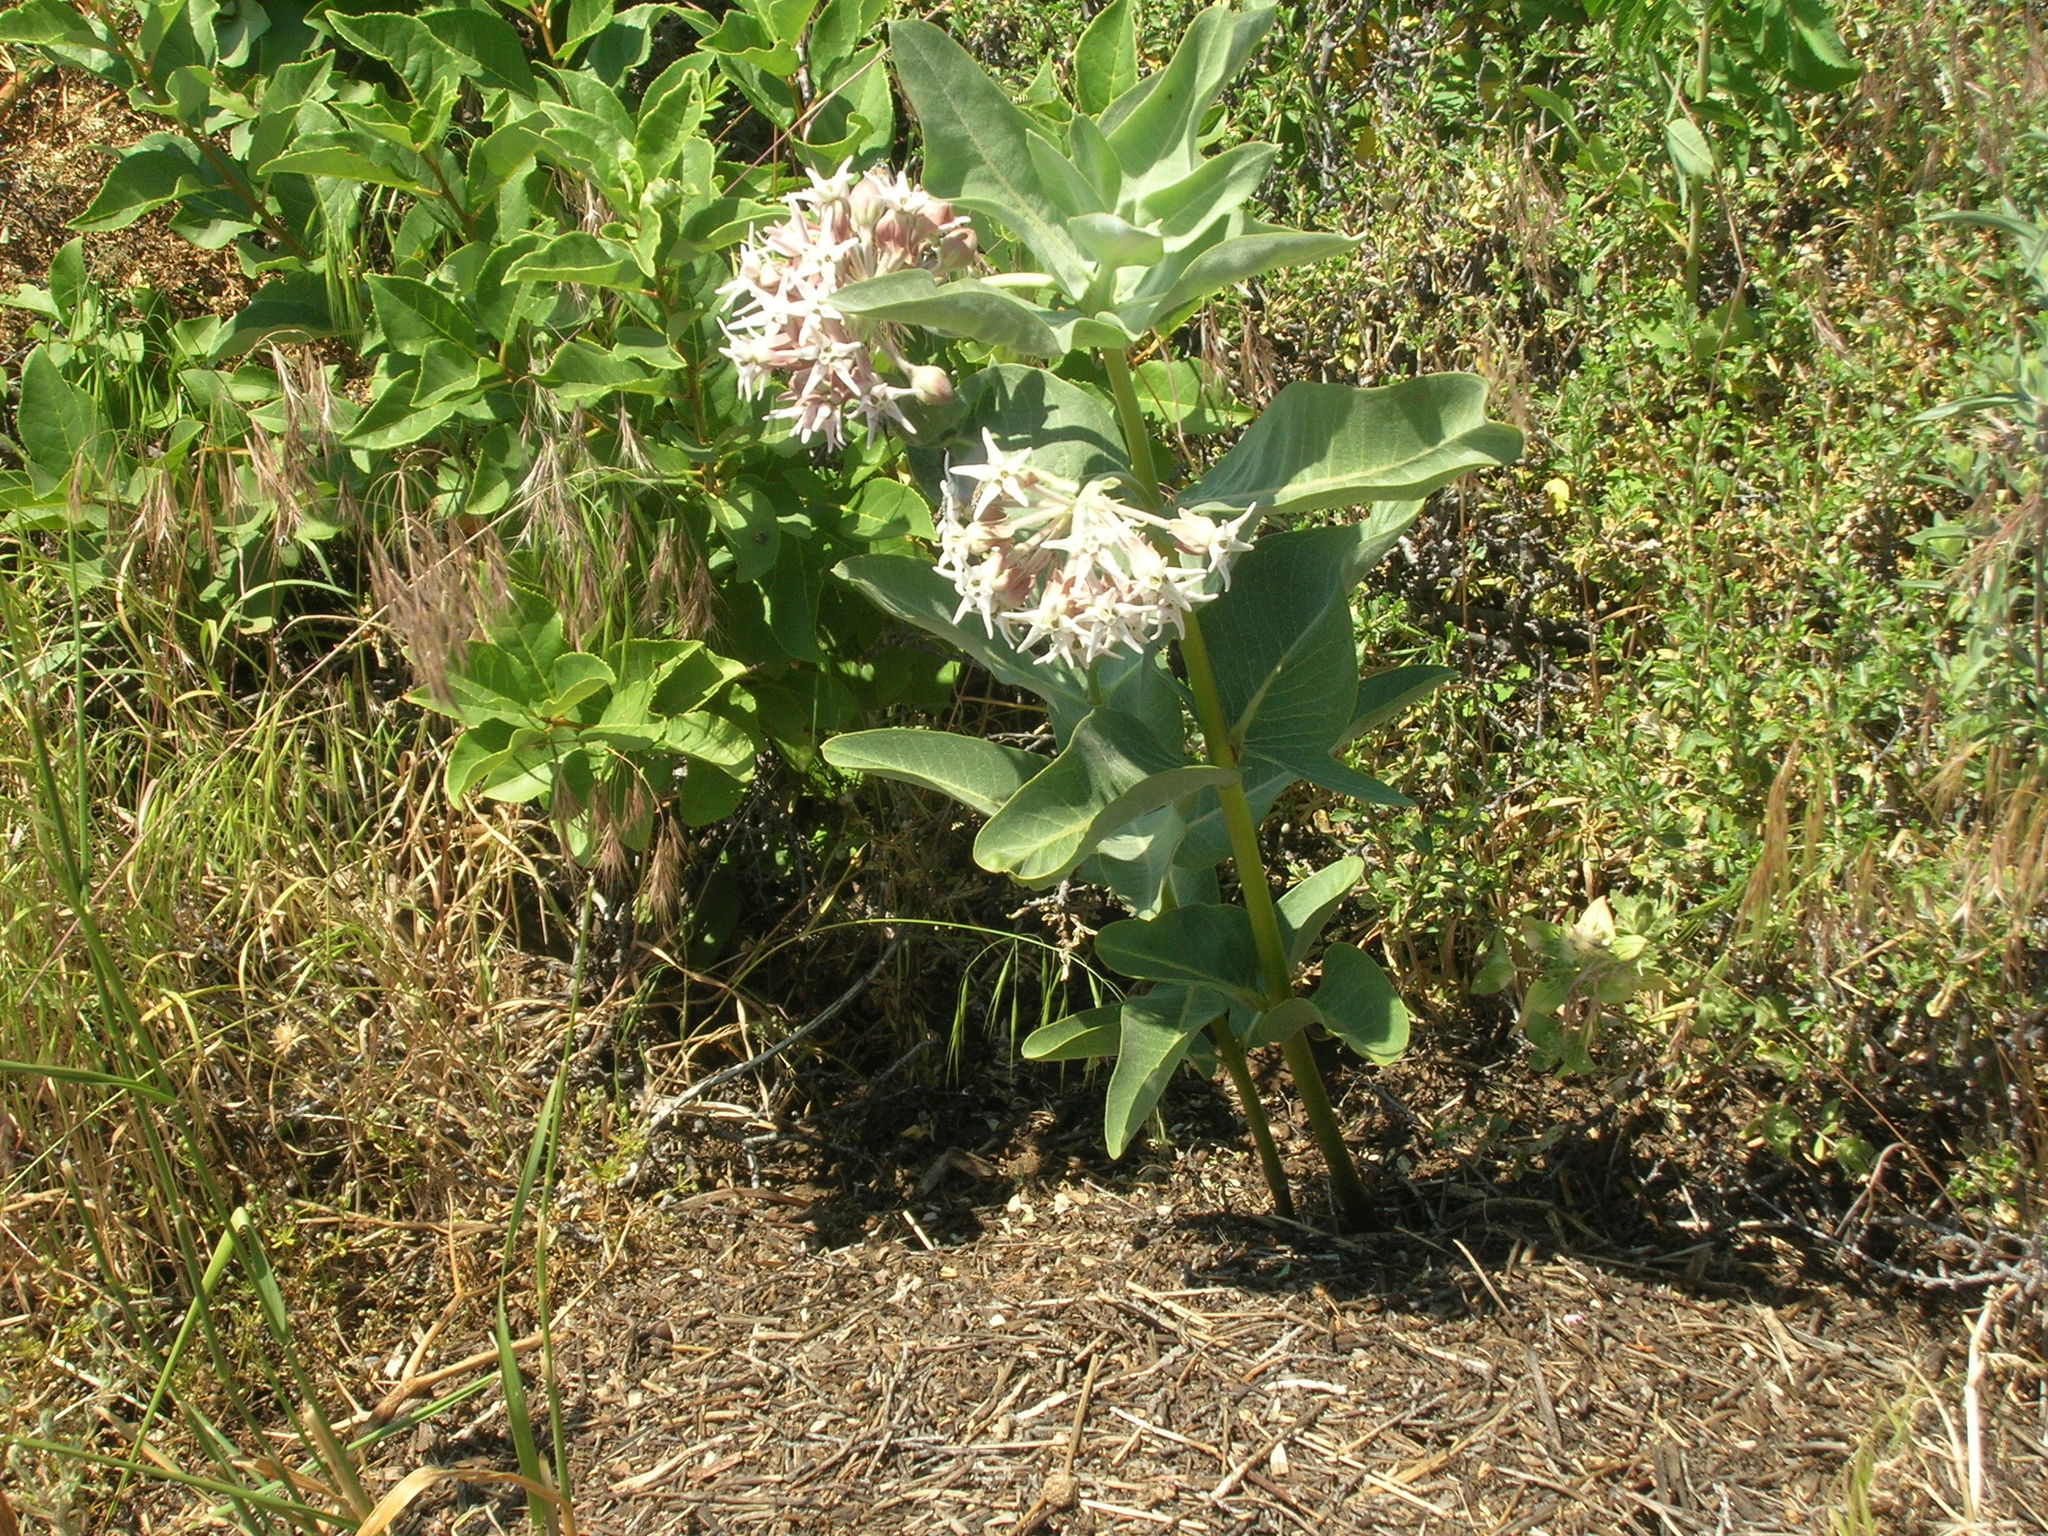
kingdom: Plantae
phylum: Tracheophyta
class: Magnoliopsida
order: Gentianales
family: Apocynaceae
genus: Asclepias
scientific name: Asclepias speciosa
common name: Showy milkweed
